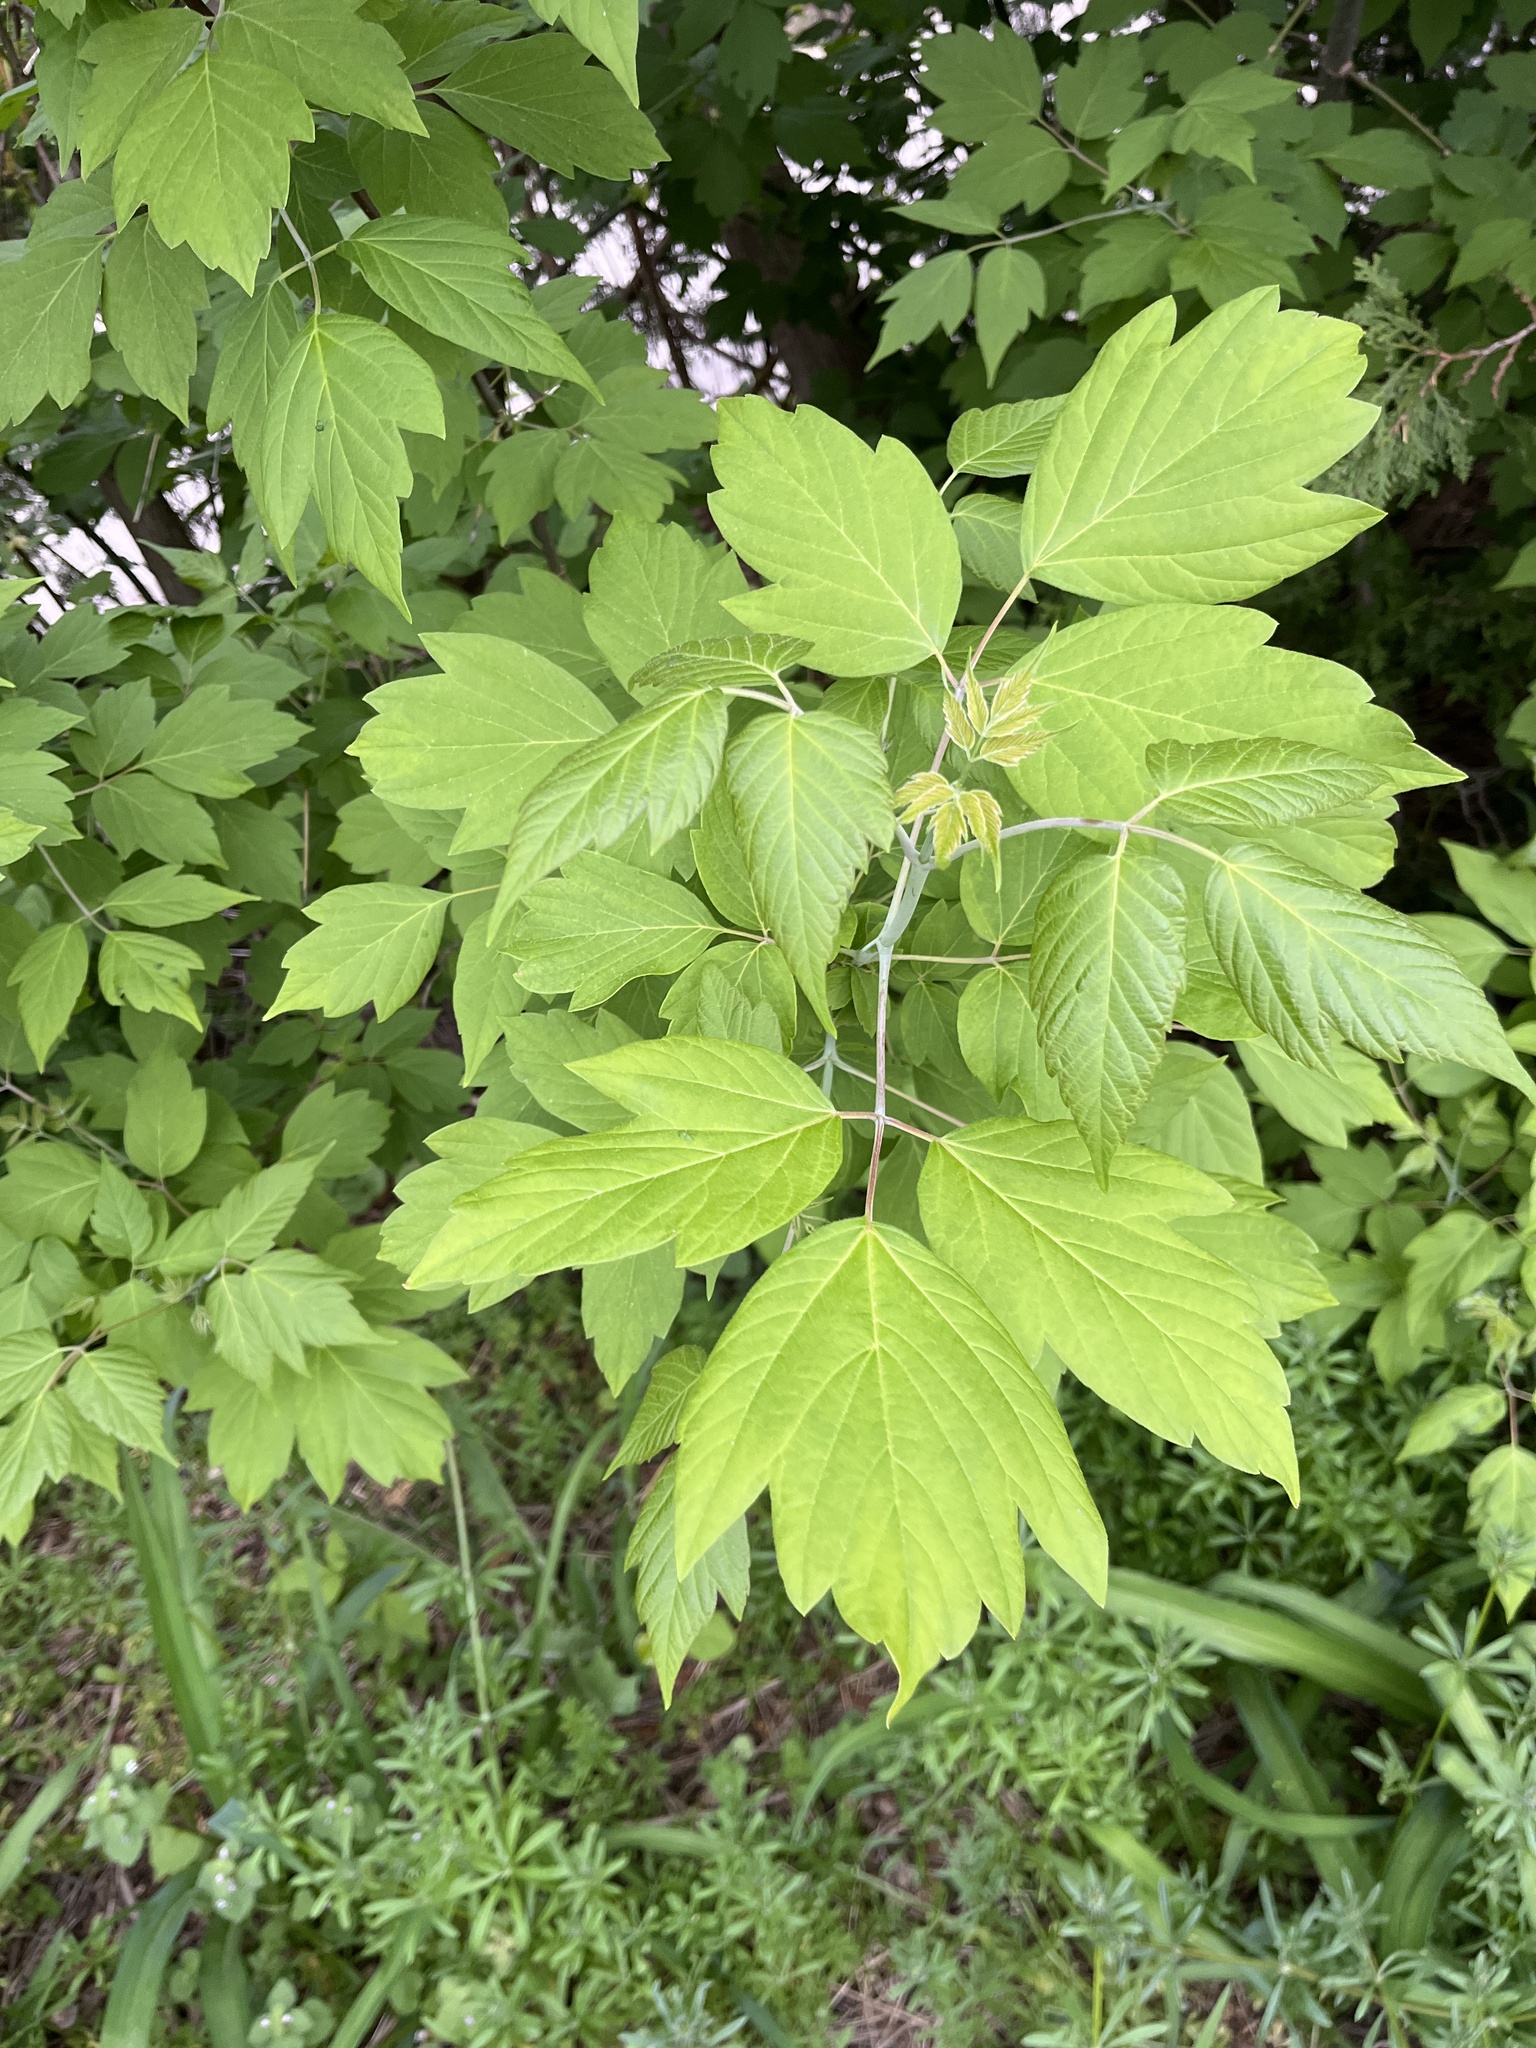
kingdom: Plantae
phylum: Tracheophyta
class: Magnoliopsida
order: Sapindales
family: Sapindaceae
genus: Acer
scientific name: Acer negundo
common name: Ashleaf maple
